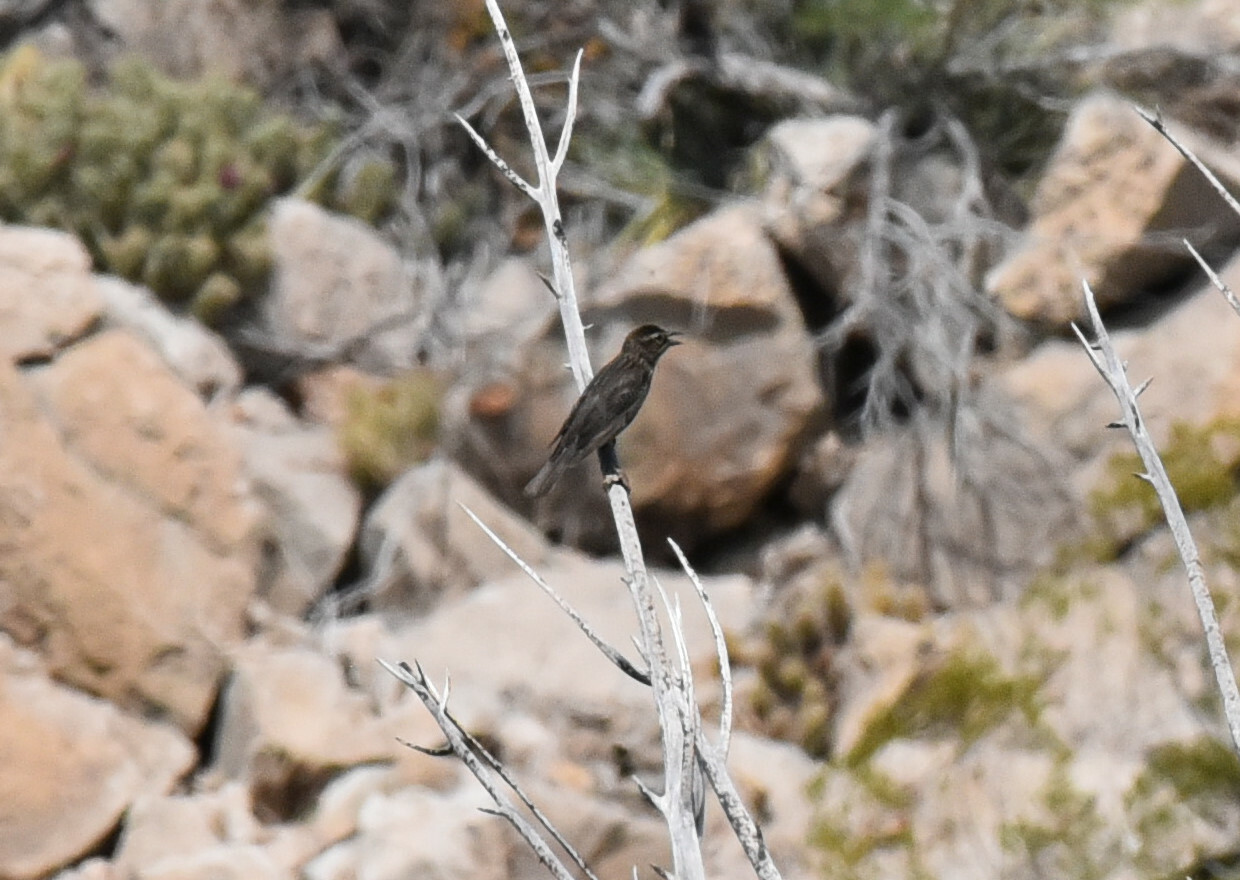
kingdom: Animalia
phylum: Chordata
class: Aves
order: Passeriformes
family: Icteridae
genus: Agelaius
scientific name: Agelaius phoeniceus
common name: Red-winged blackbird
